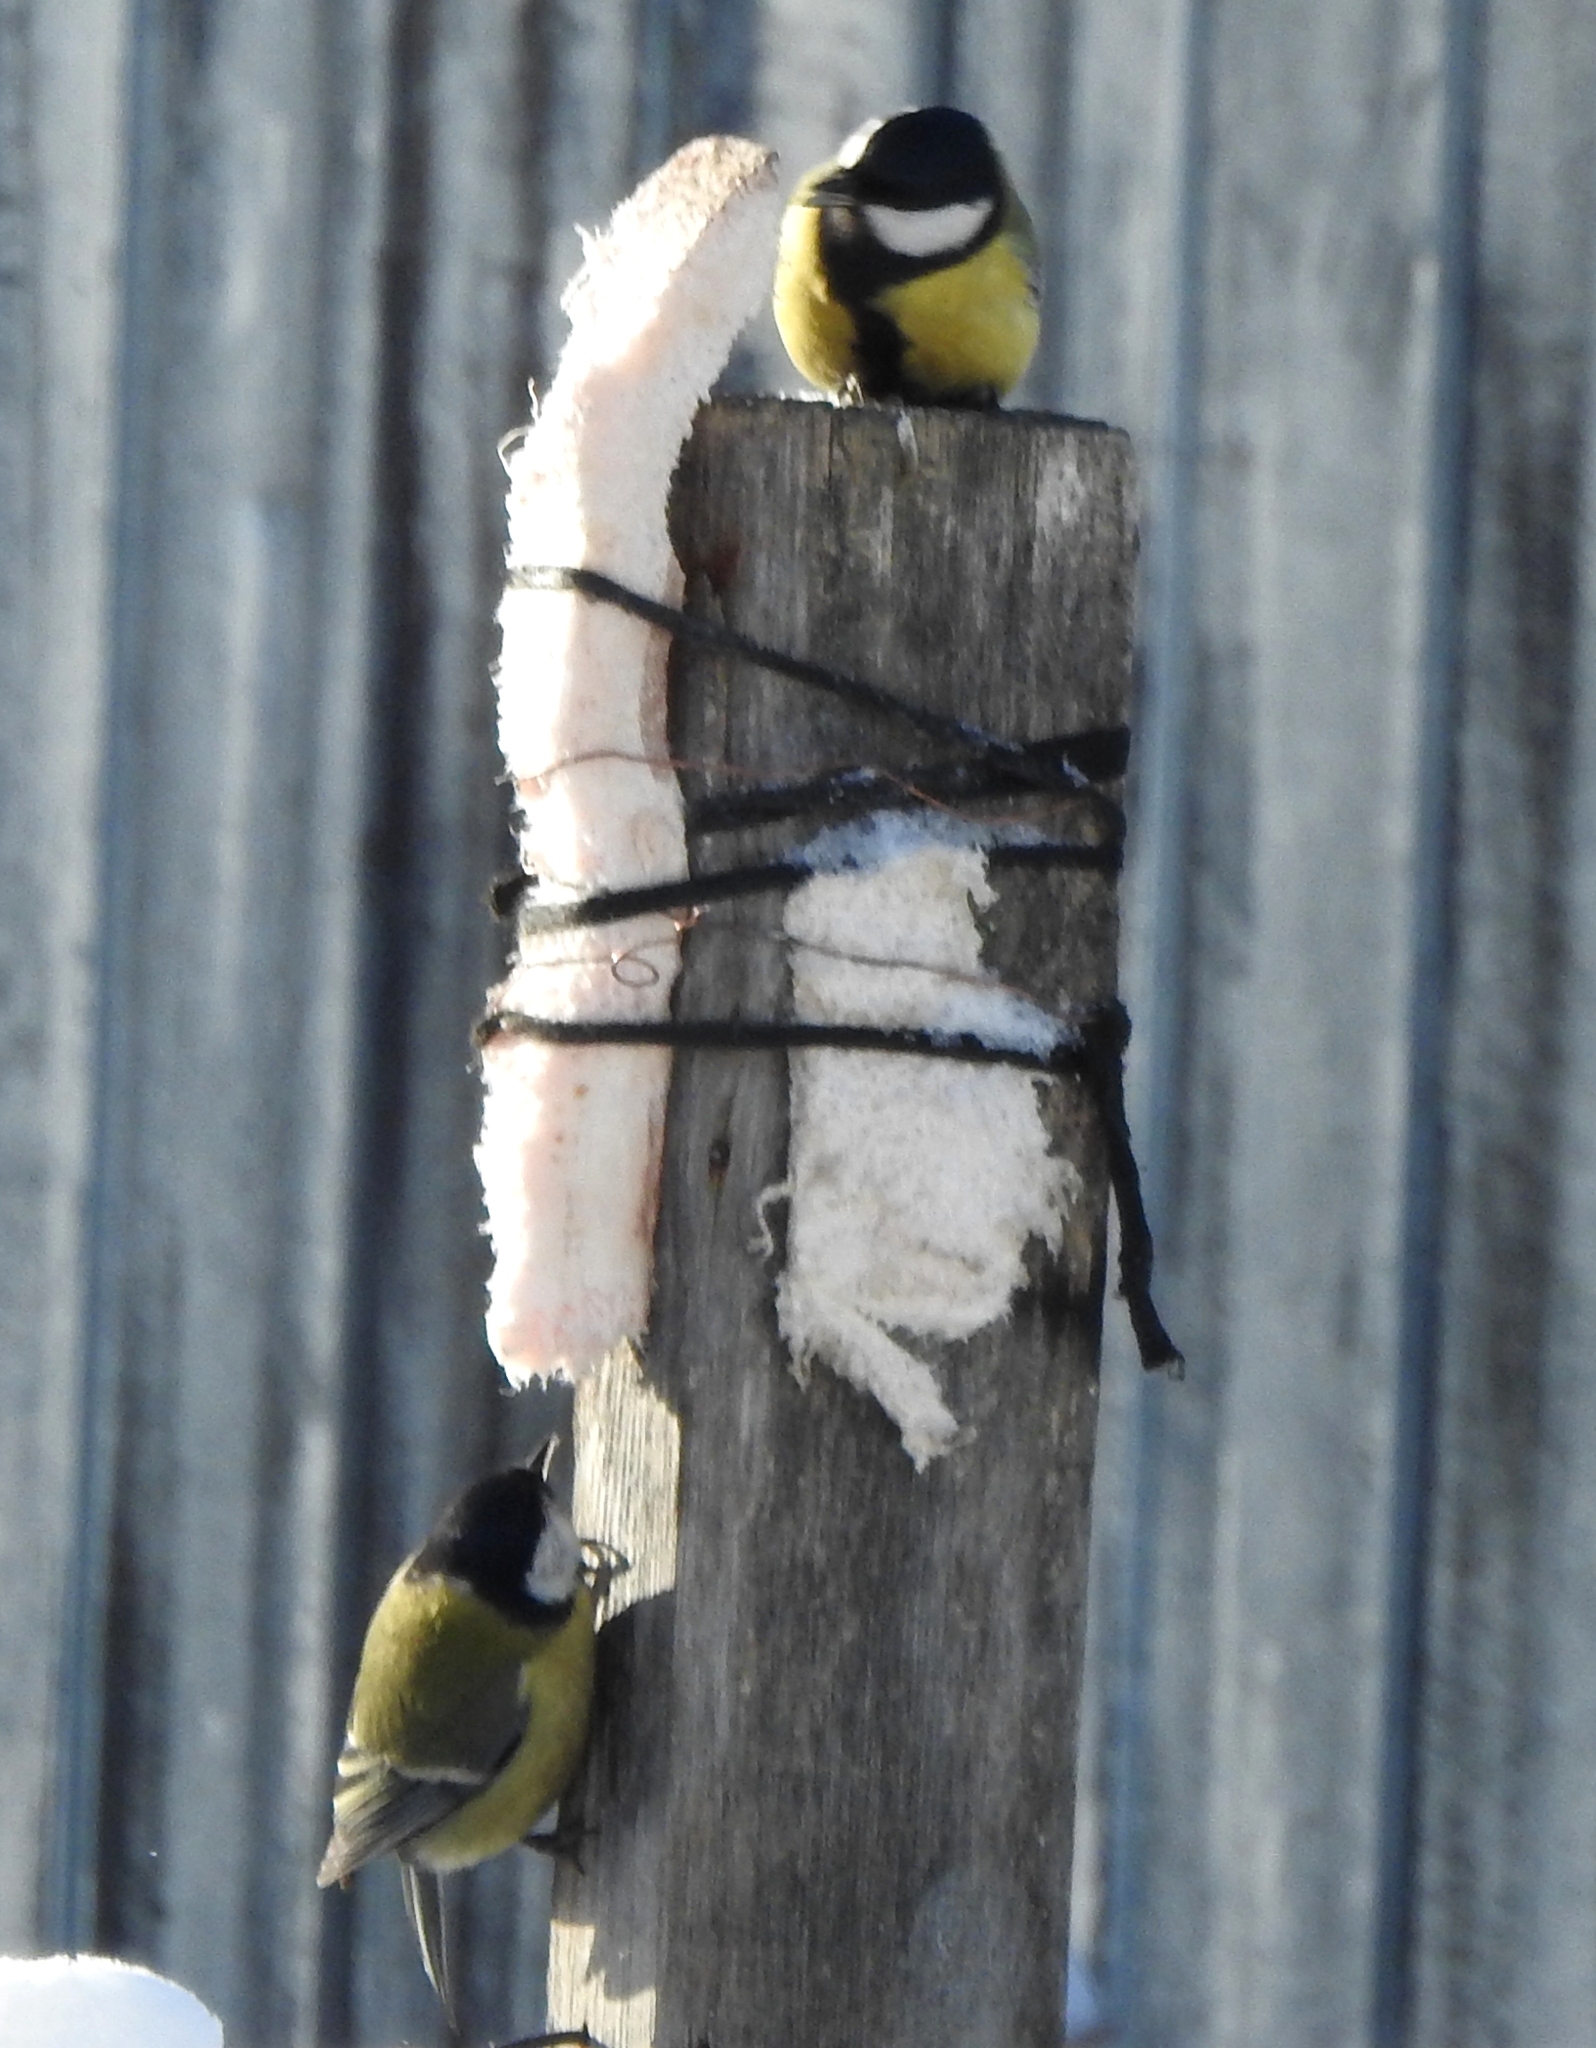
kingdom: Animalia
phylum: Chordata
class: Aves
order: Passeriformes
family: Paridae
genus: Parus
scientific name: Parus major
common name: Great tit
